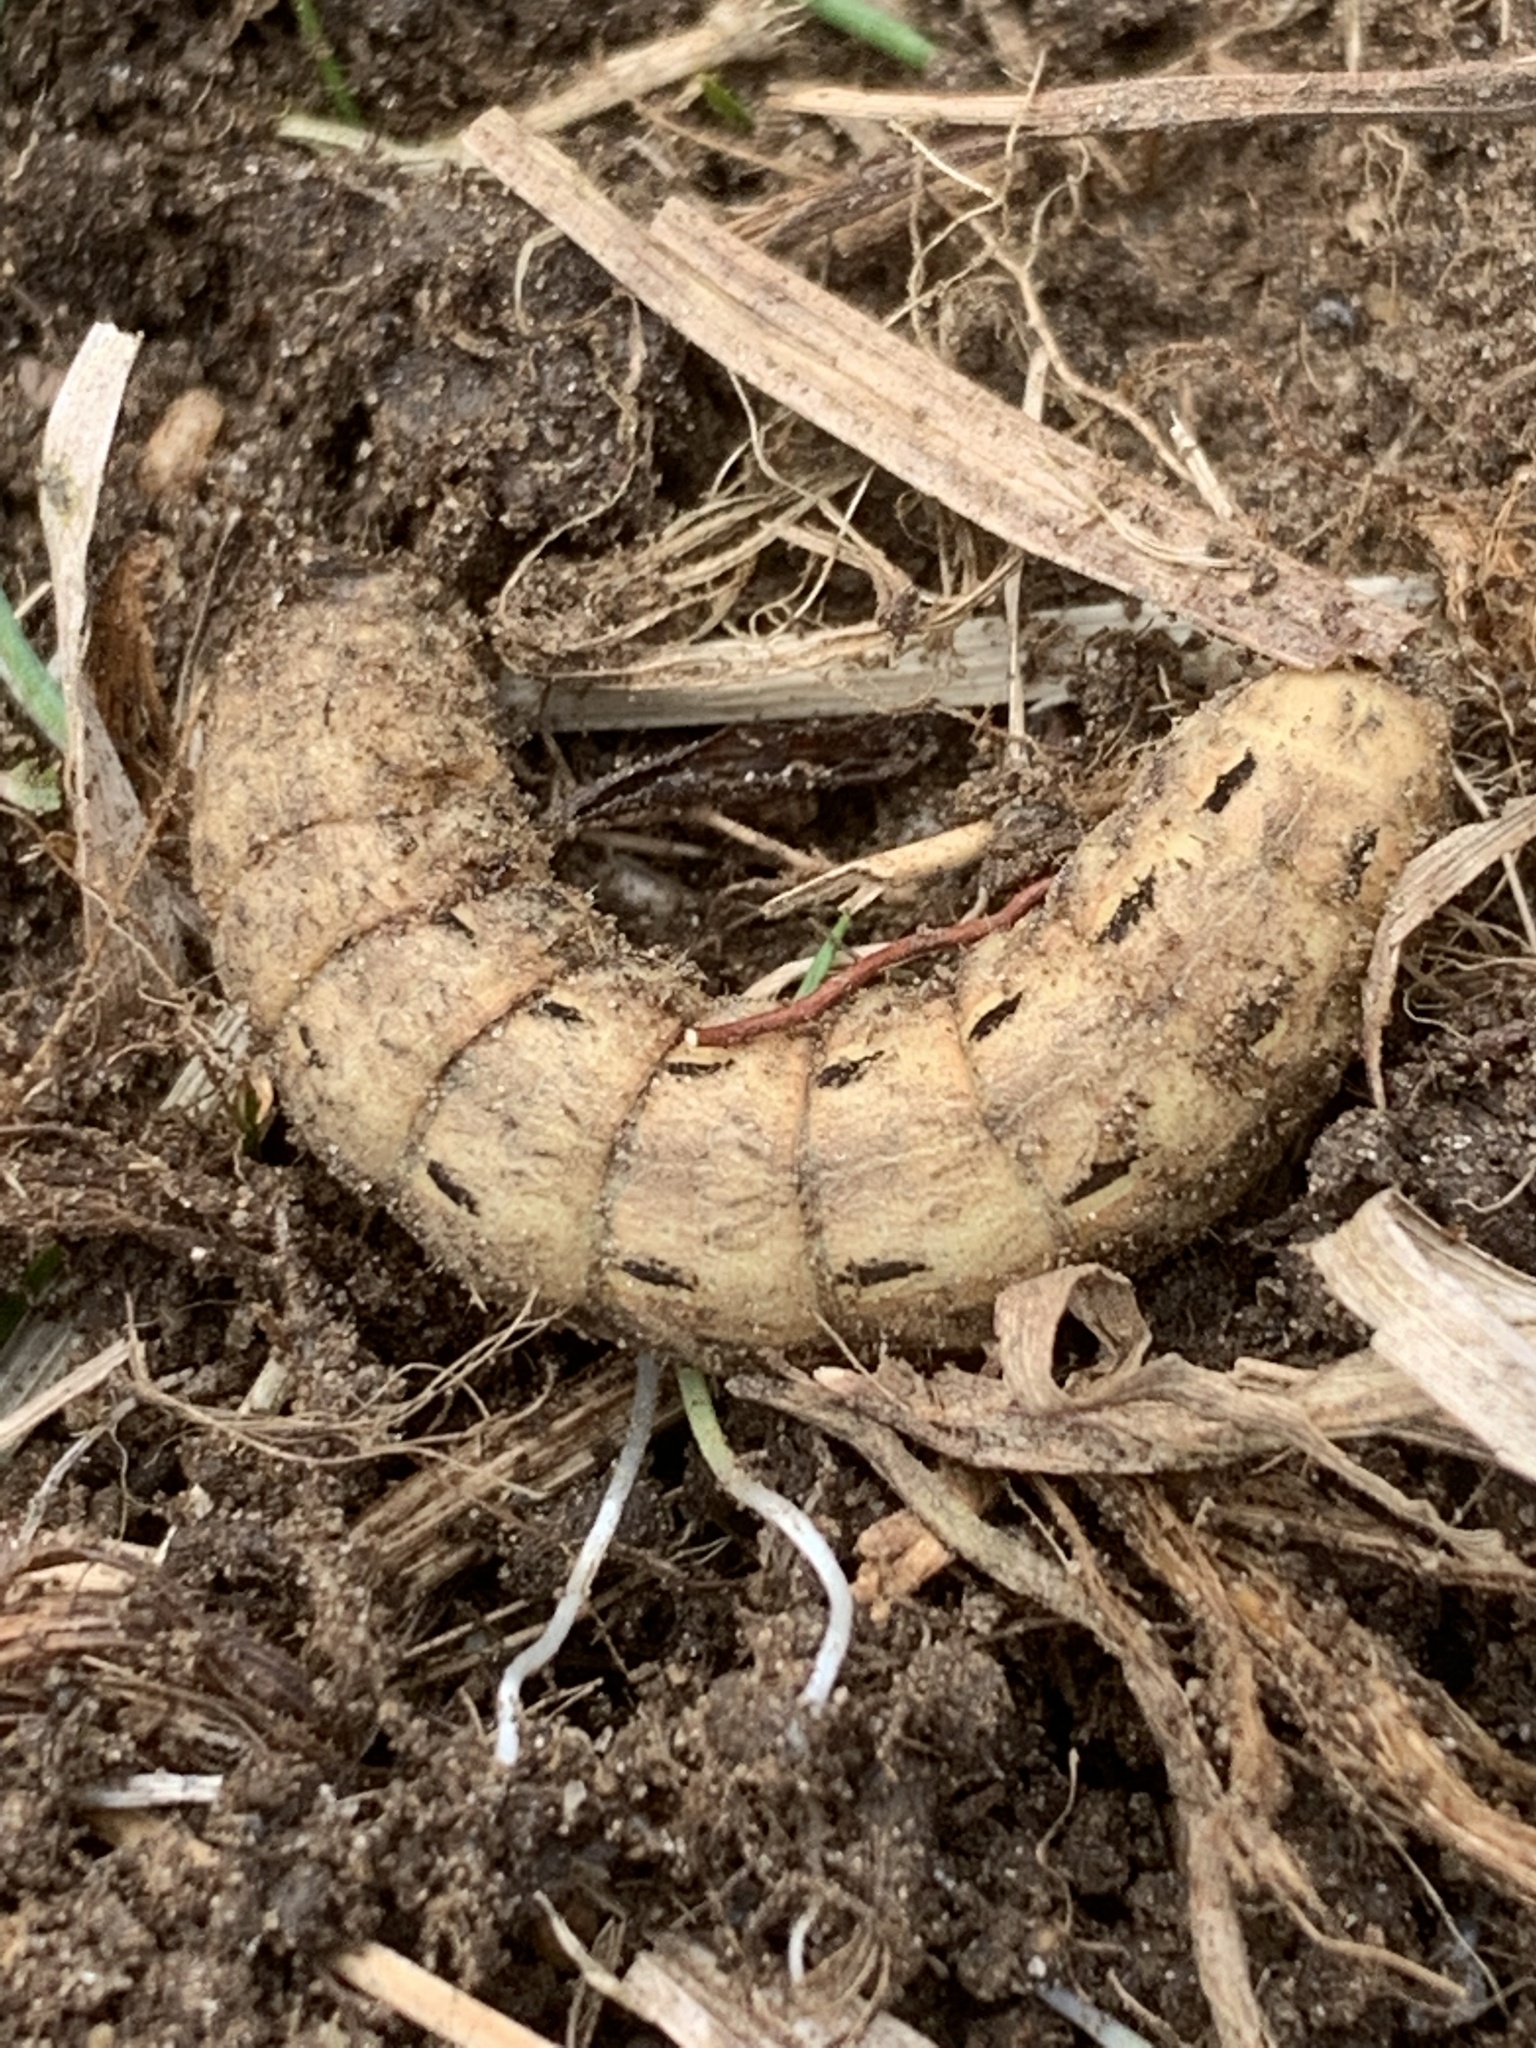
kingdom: Animalia
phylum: Arthropoda
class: Insecta
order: Lepidoptera
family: Noctuidae
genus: Noctua
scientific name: Noctua pronuba
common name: Large yellow underwing
